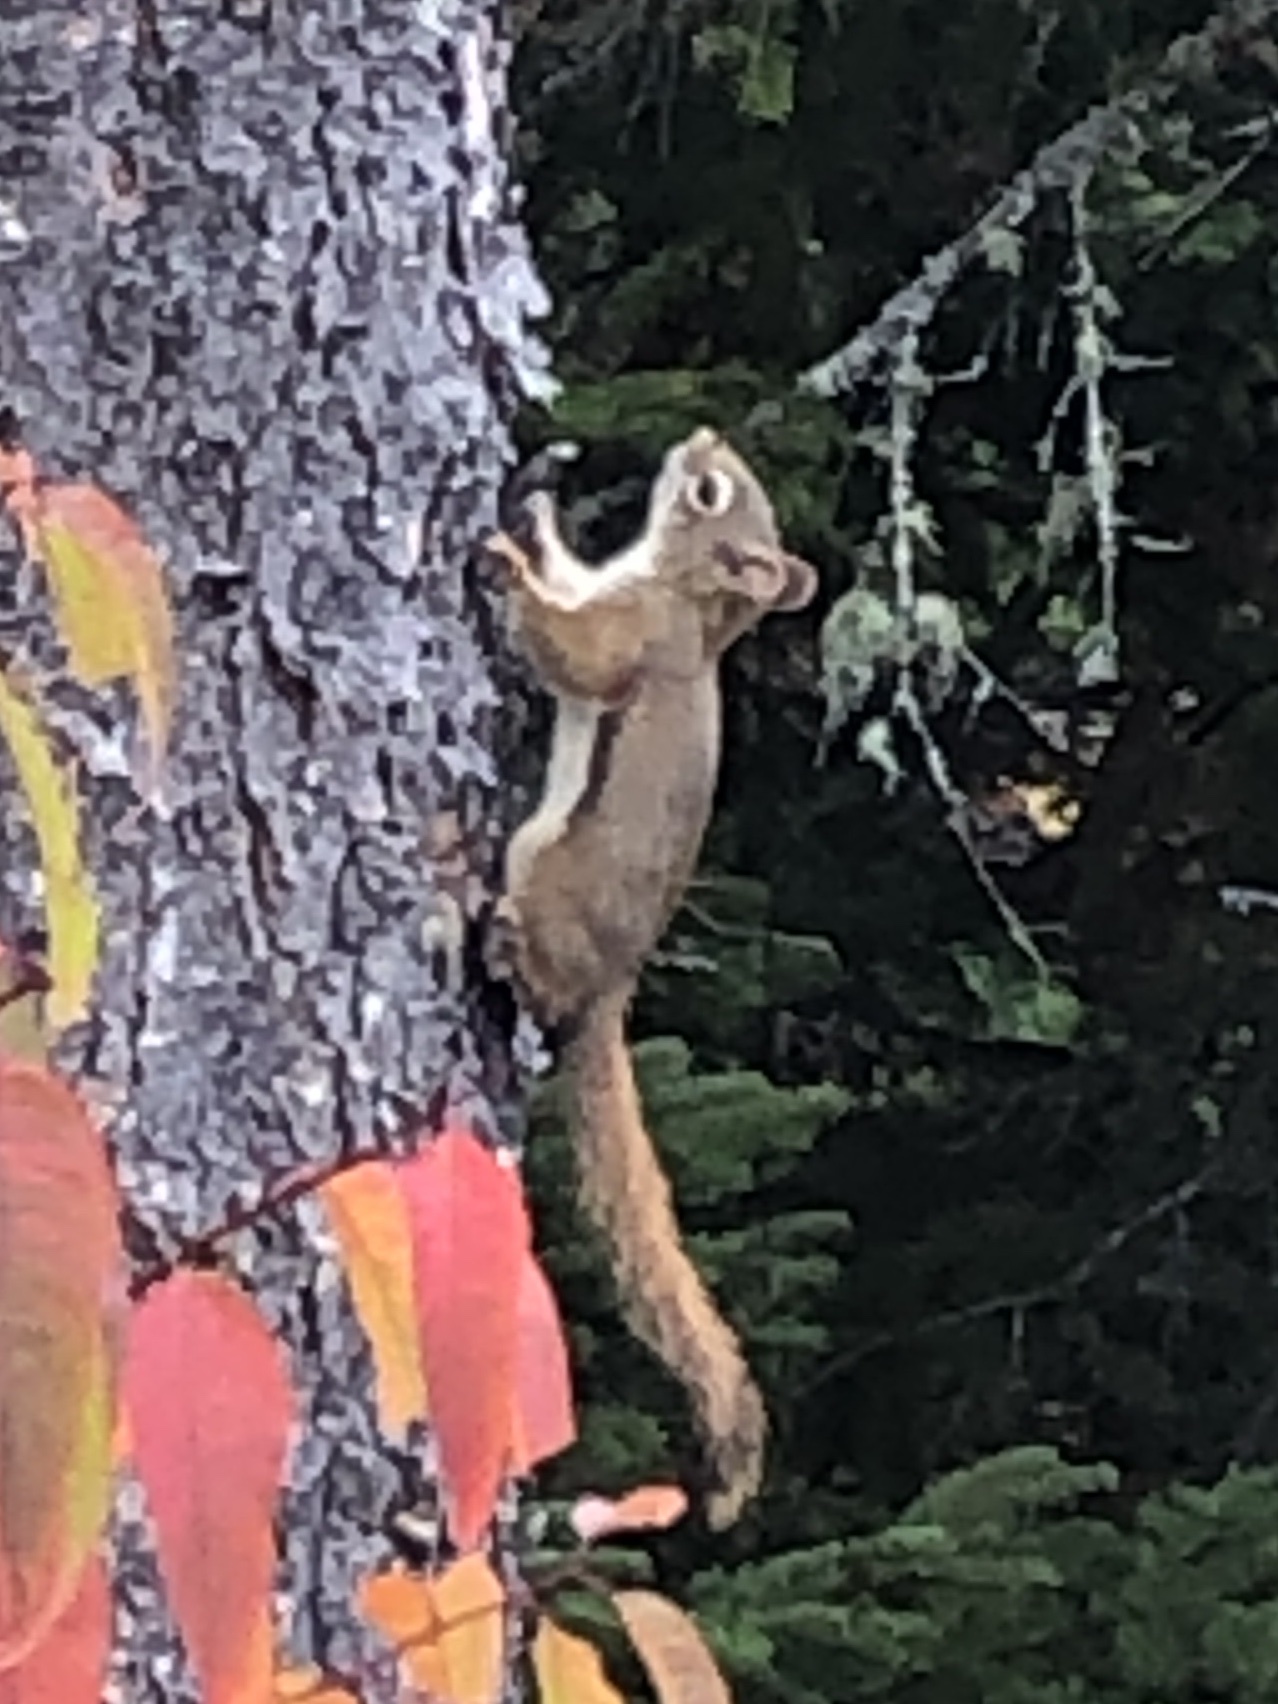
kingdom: Animalia
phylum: Chordata
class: Mammalia
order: Rodentia
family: Sciuridae
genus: Tamiasciurus
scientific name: Tamiasciurus hudsonicus
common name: Red squirrel
